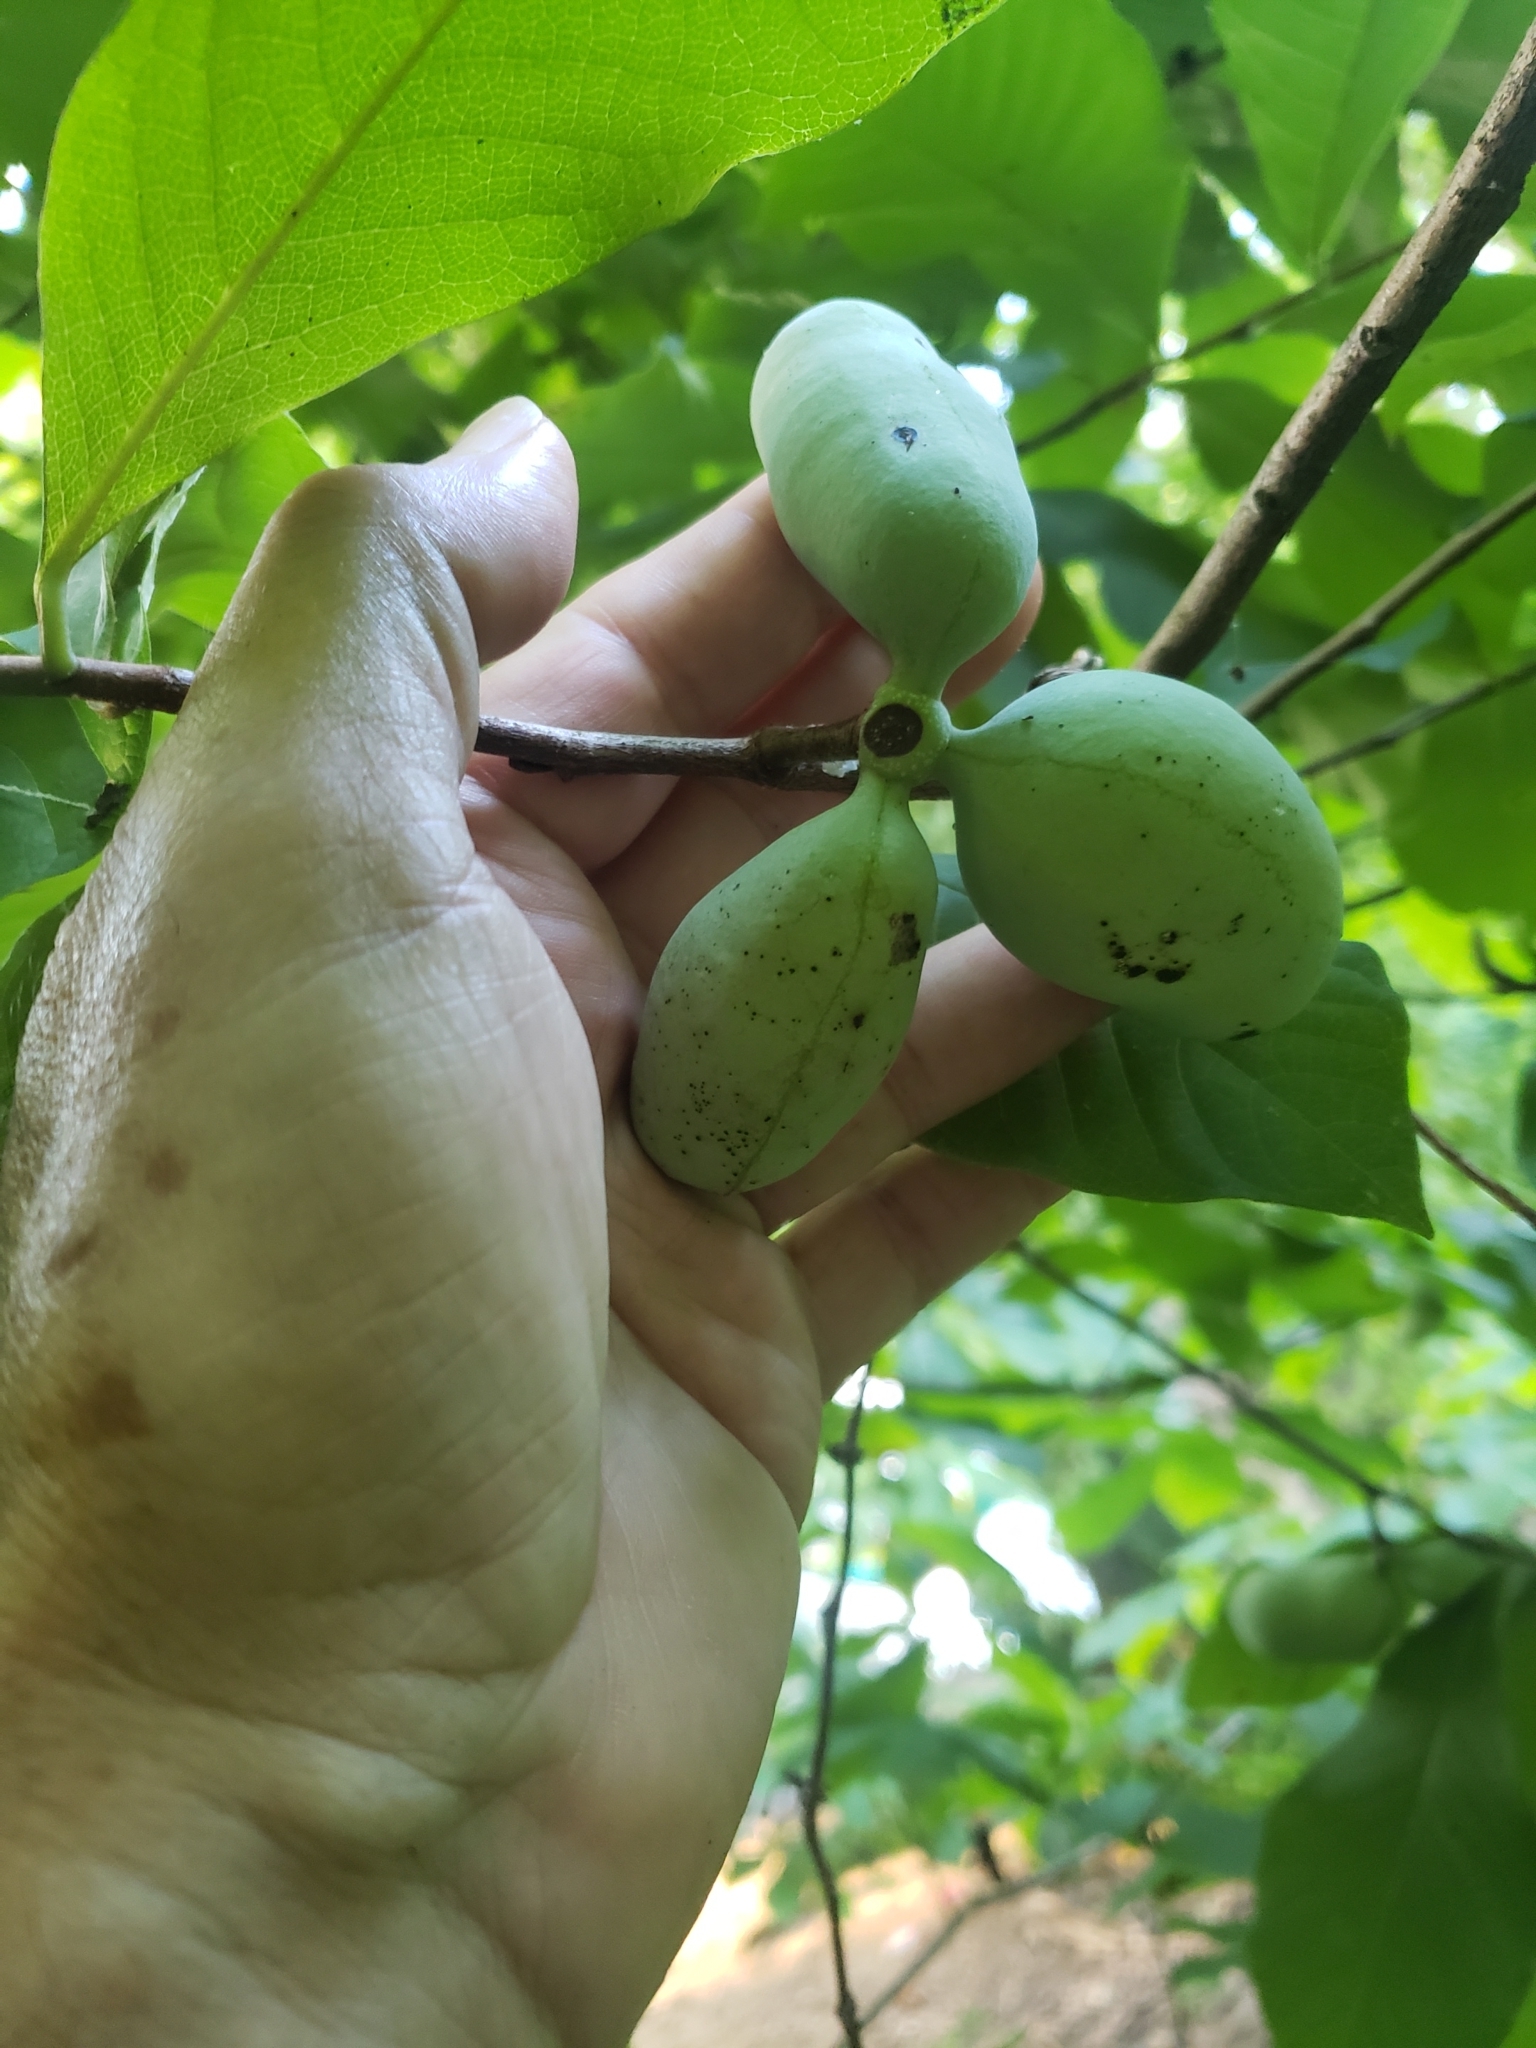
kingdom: Plantae
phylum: Tracheophyta
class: Magnoliopsida
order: Magnoliales
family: Annonaceae
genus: Asimina
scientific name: Asimina triloba
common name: Dog-banana
